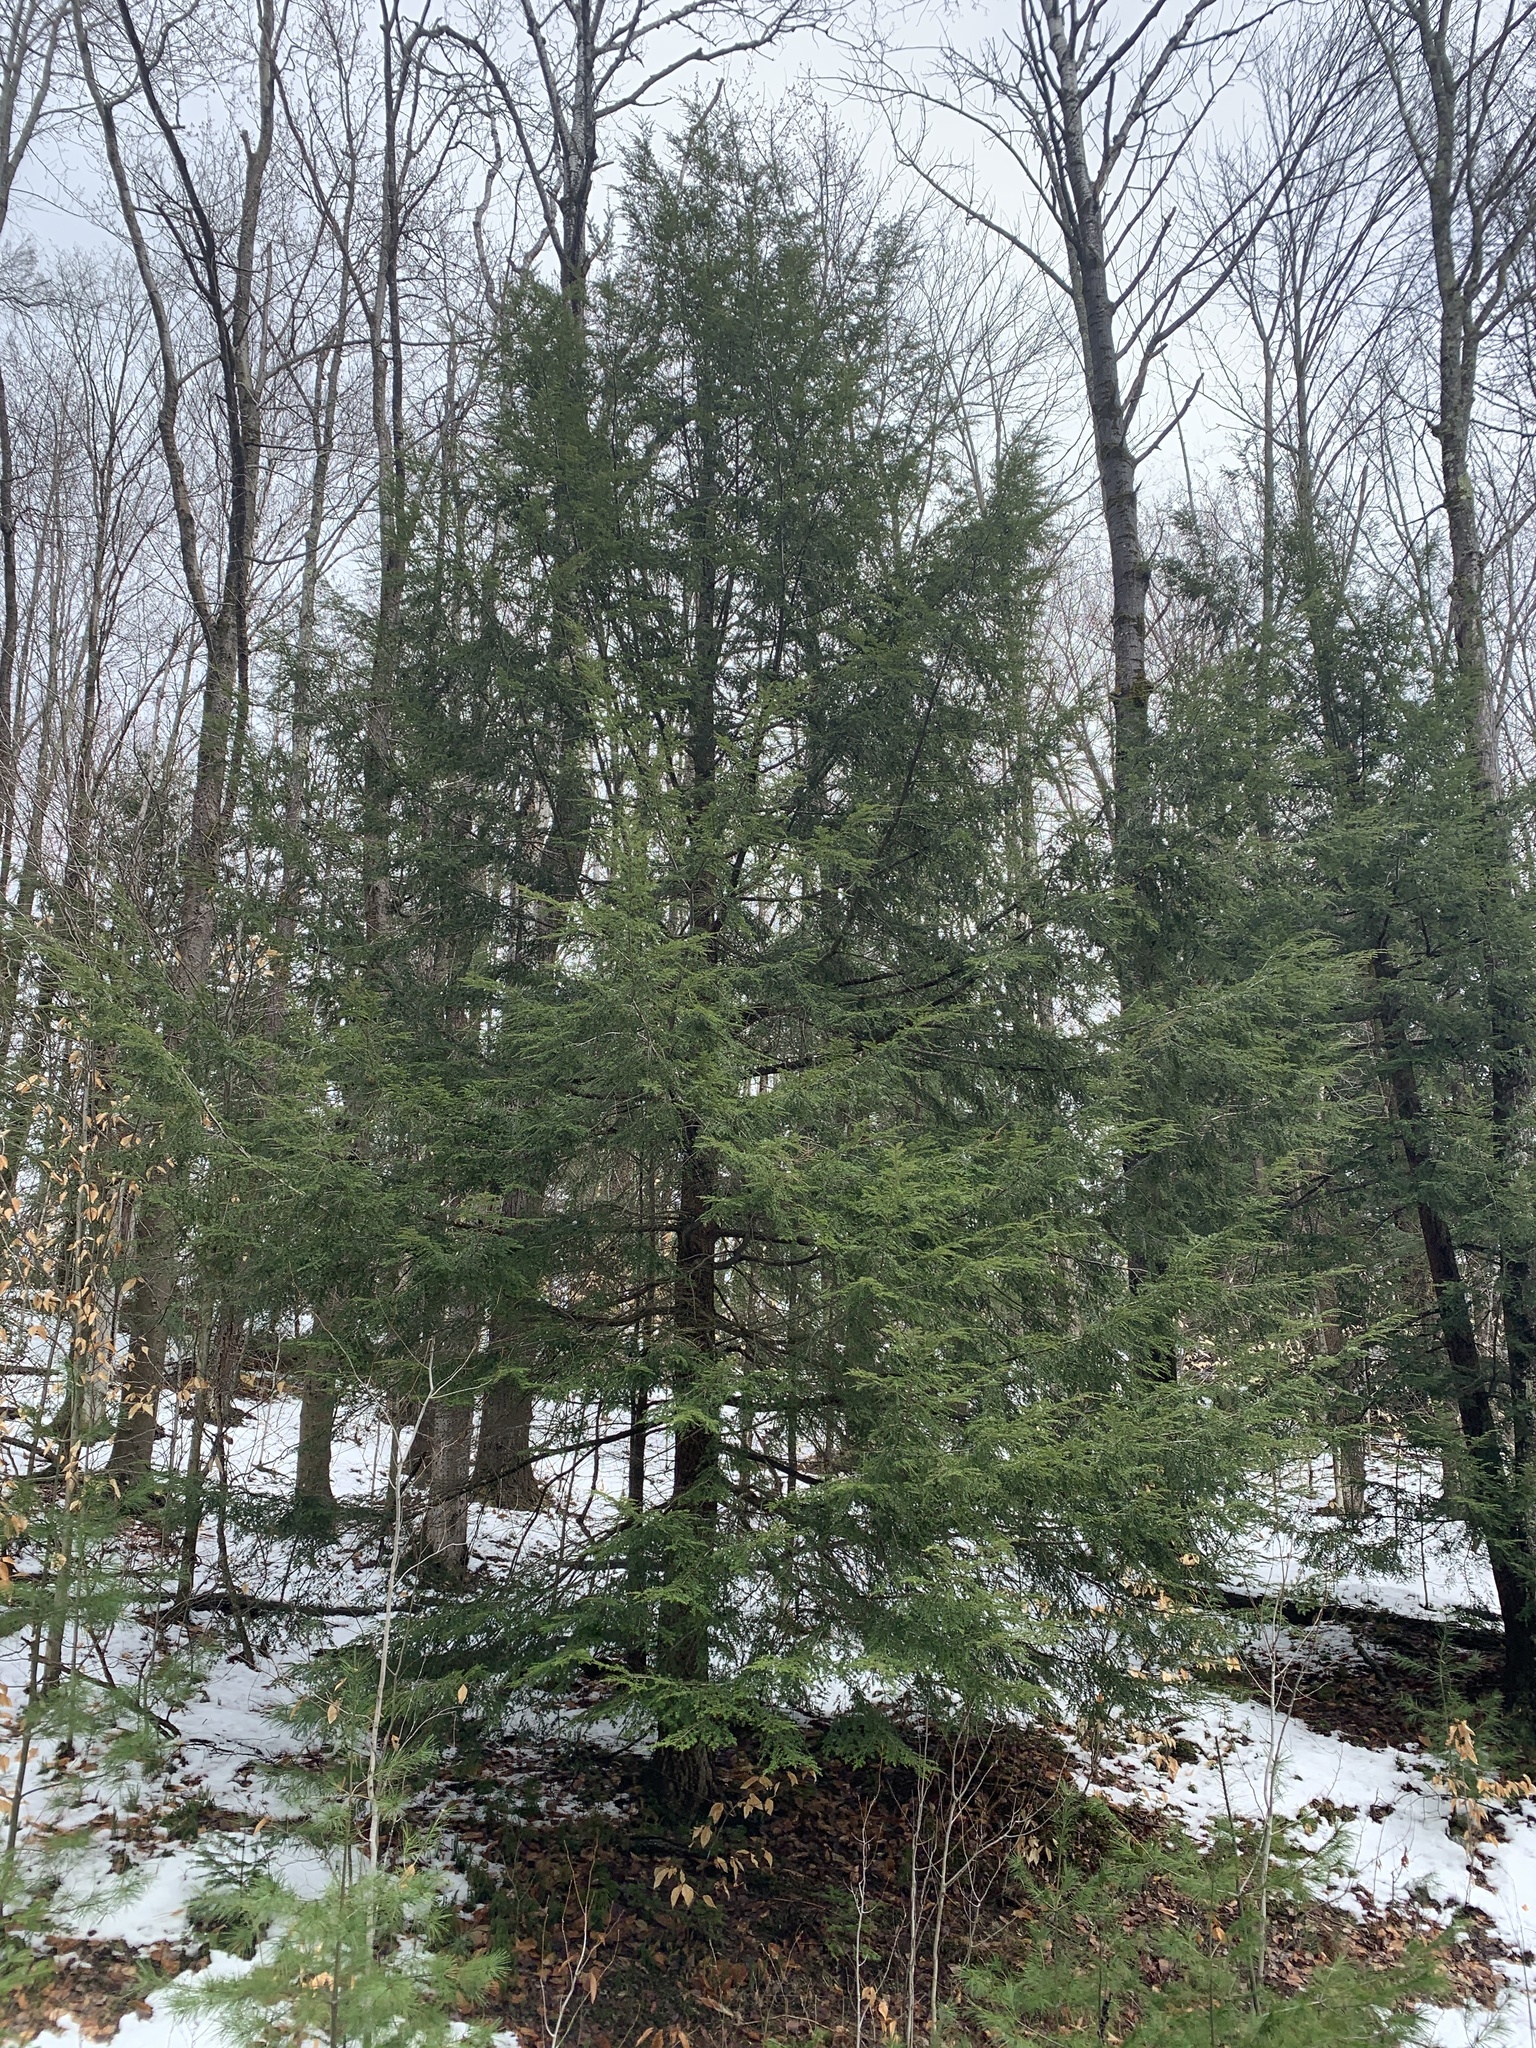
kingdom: Plantae
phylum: Tracheophyta
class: Pinopsida
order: Pinales
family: Pinaceae
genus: Tsuga
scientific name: Tsuga canadensis
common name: Eastern hemlock
